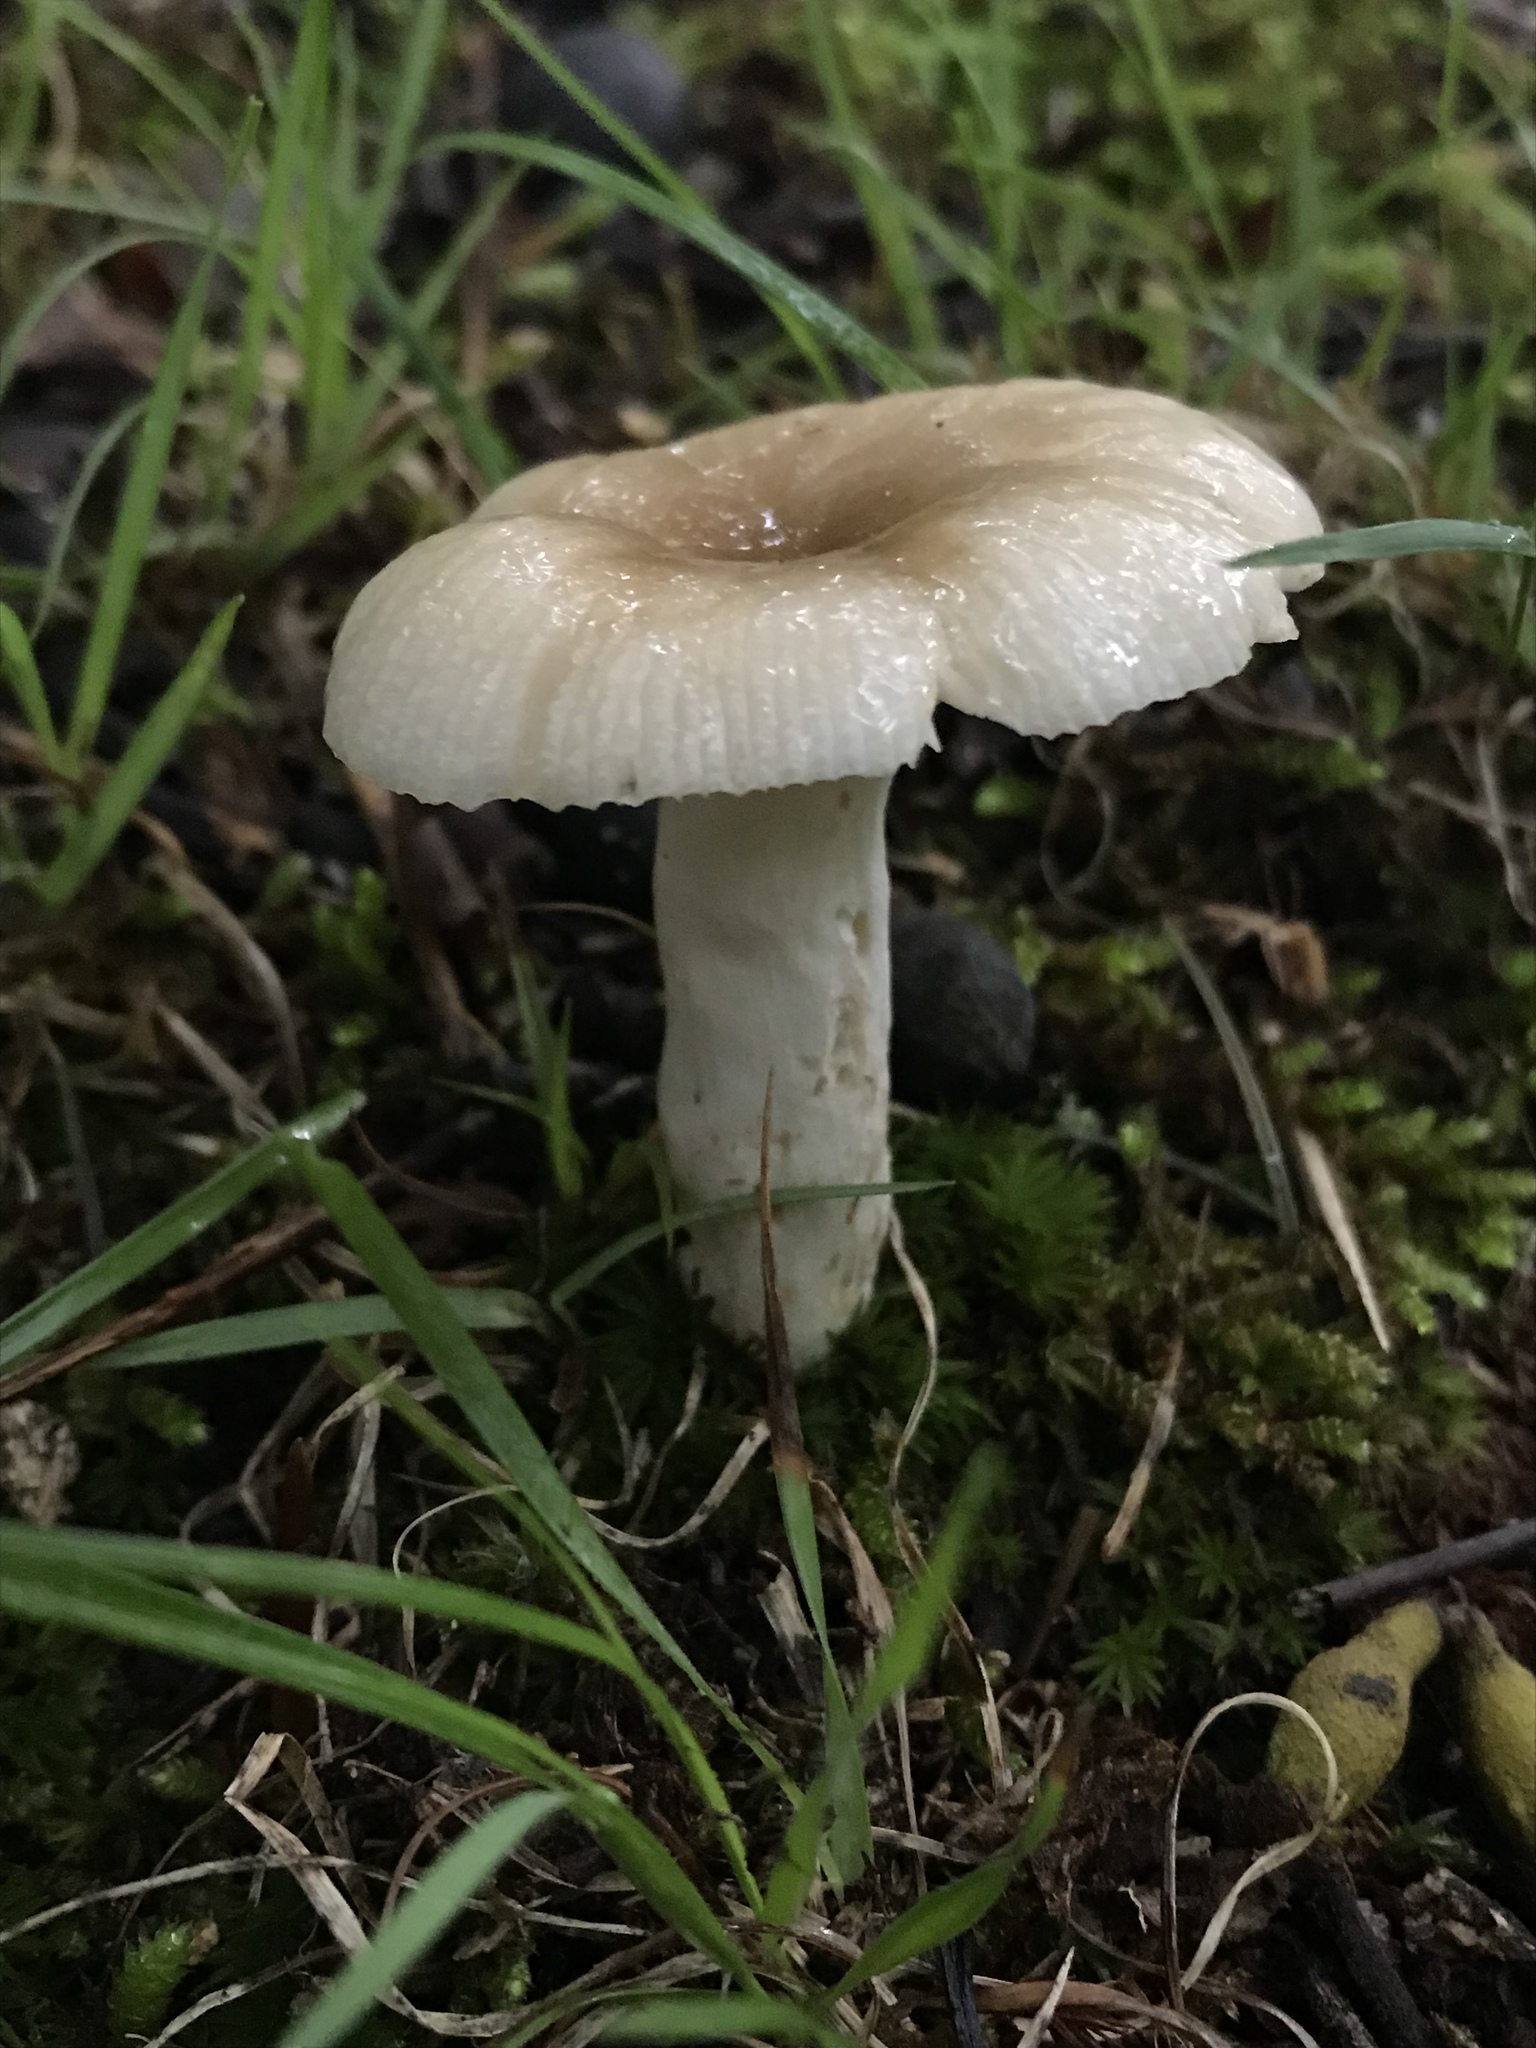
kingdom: Fungi
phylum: Basidiomycota
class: Agaricomycetes
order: Russulales
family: Russulaceae
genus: Russula
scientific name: Russula pectinatoides
